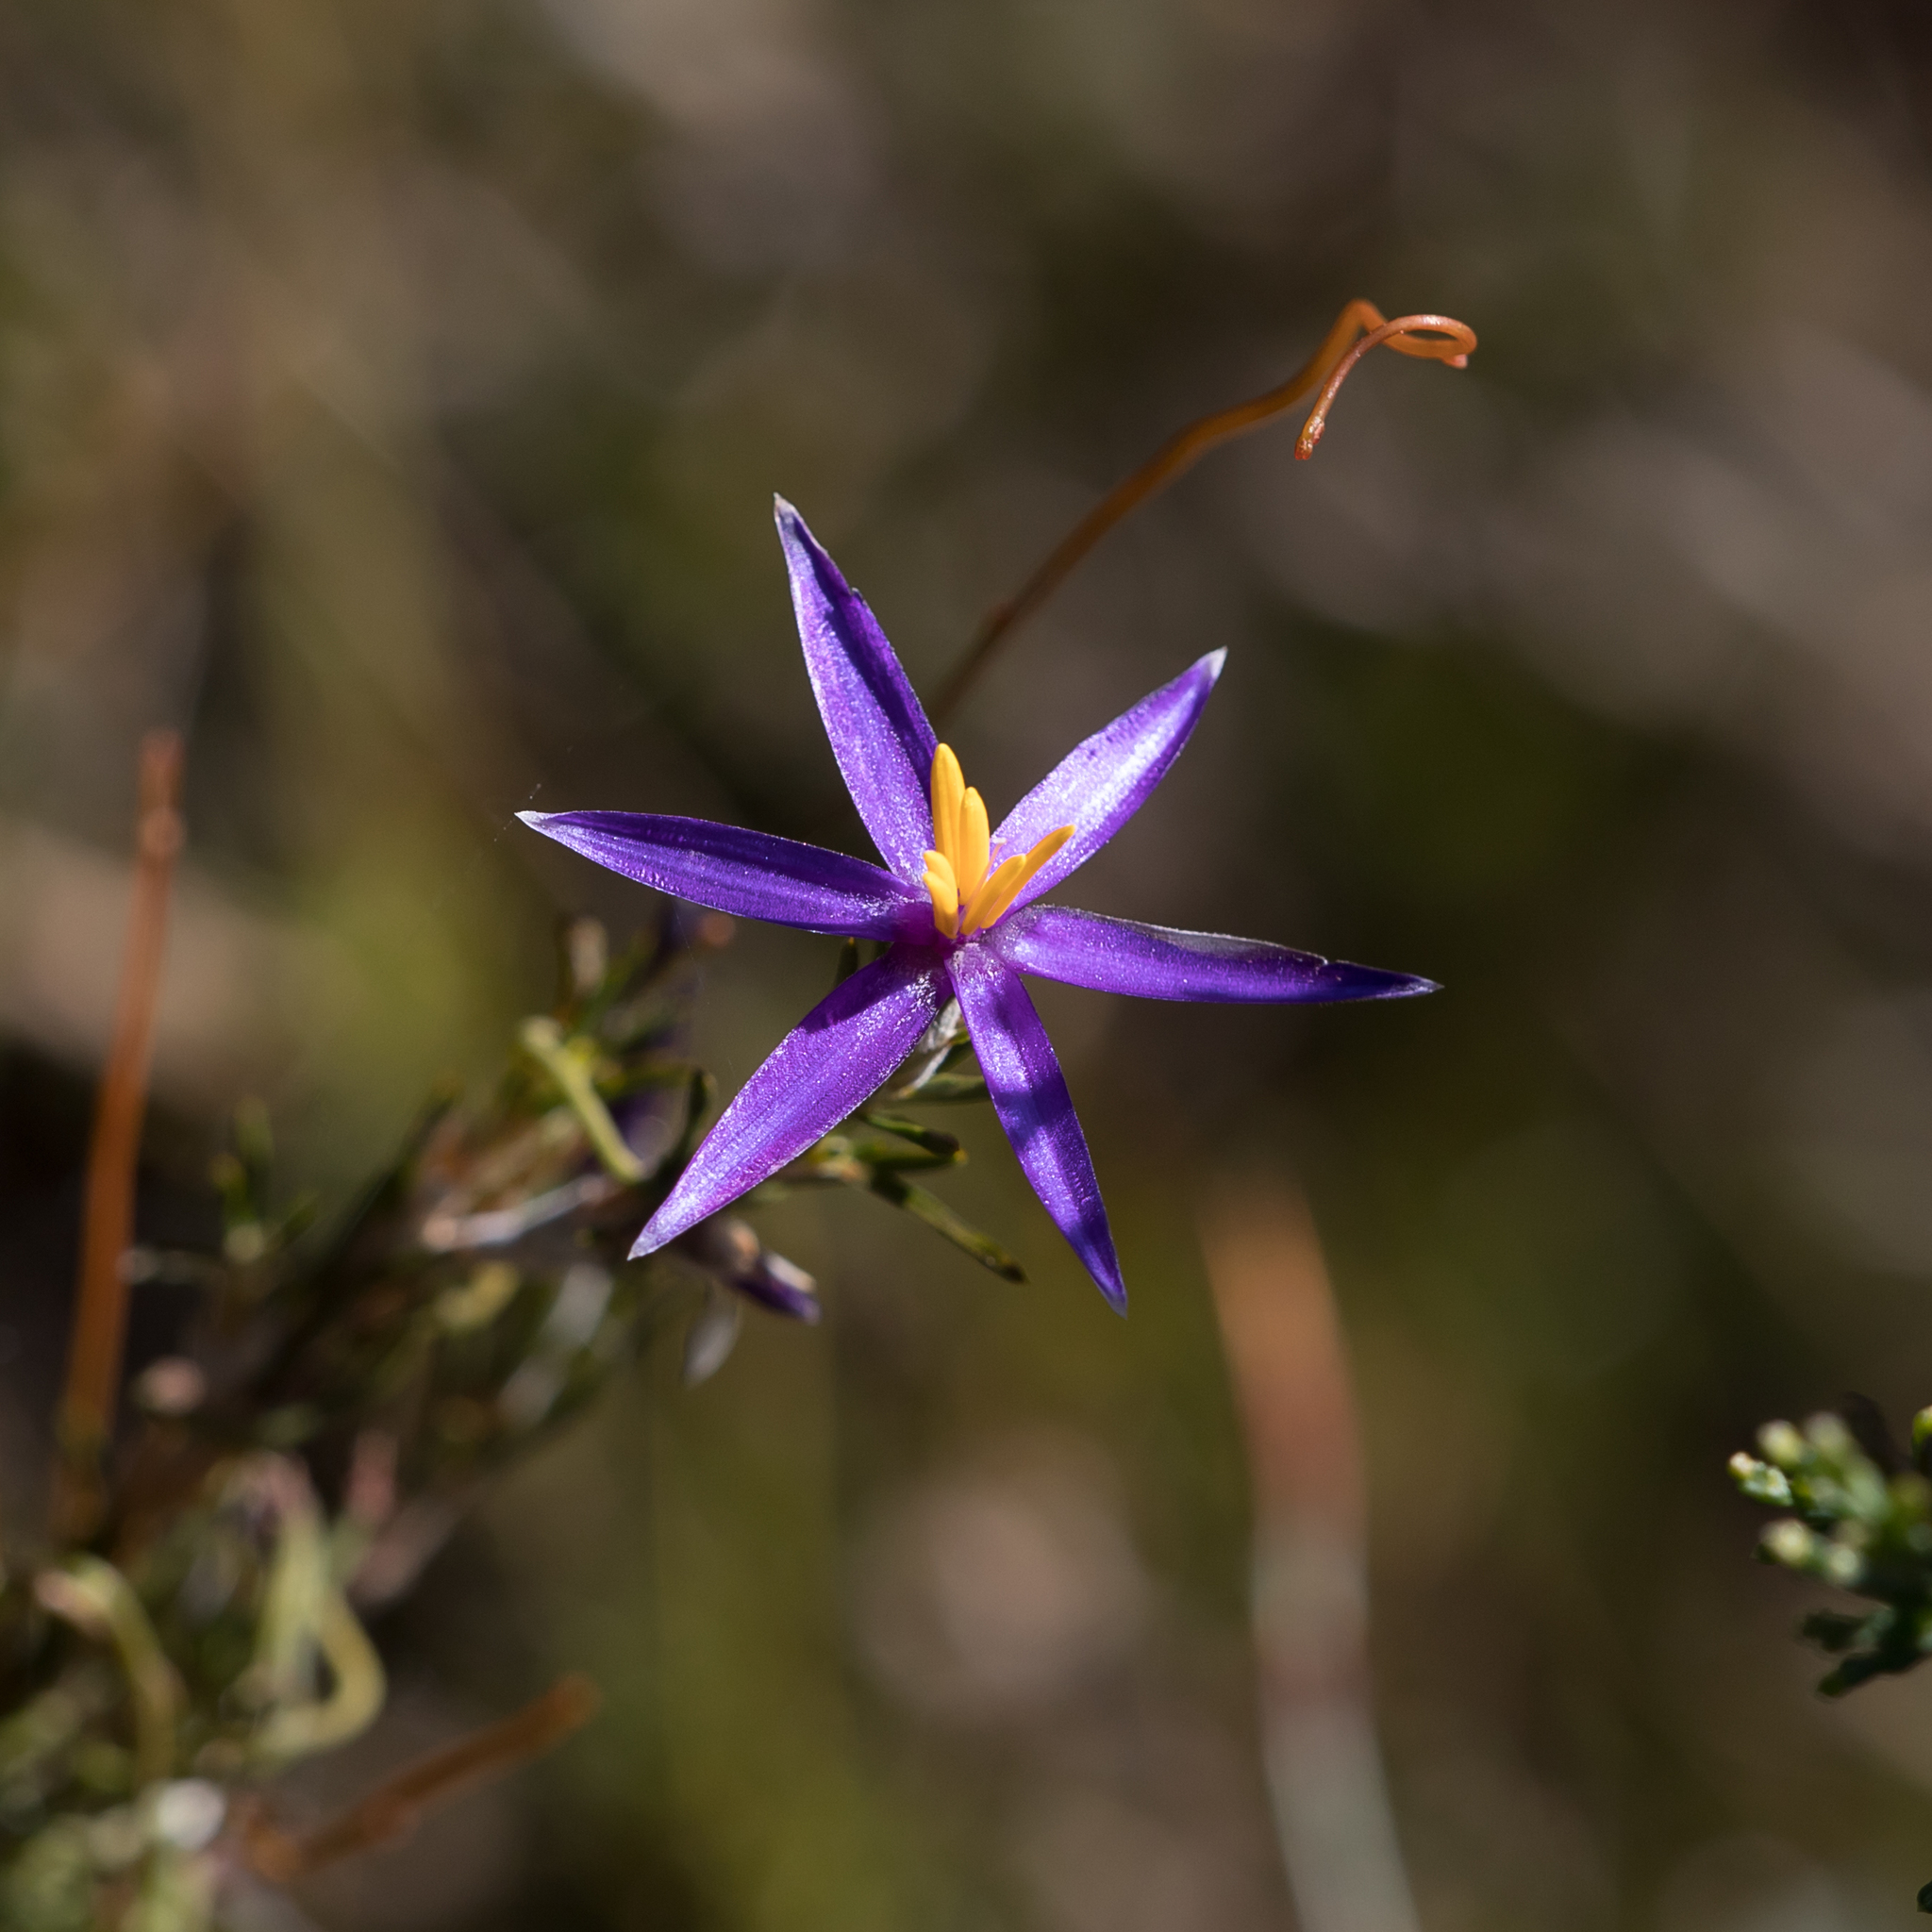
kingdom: Plantae
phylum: Tracheophyta
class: Liliopsida
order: Arecales
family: Dasypogonaceae
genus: Calectasia
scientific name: Calectasia intermedia
